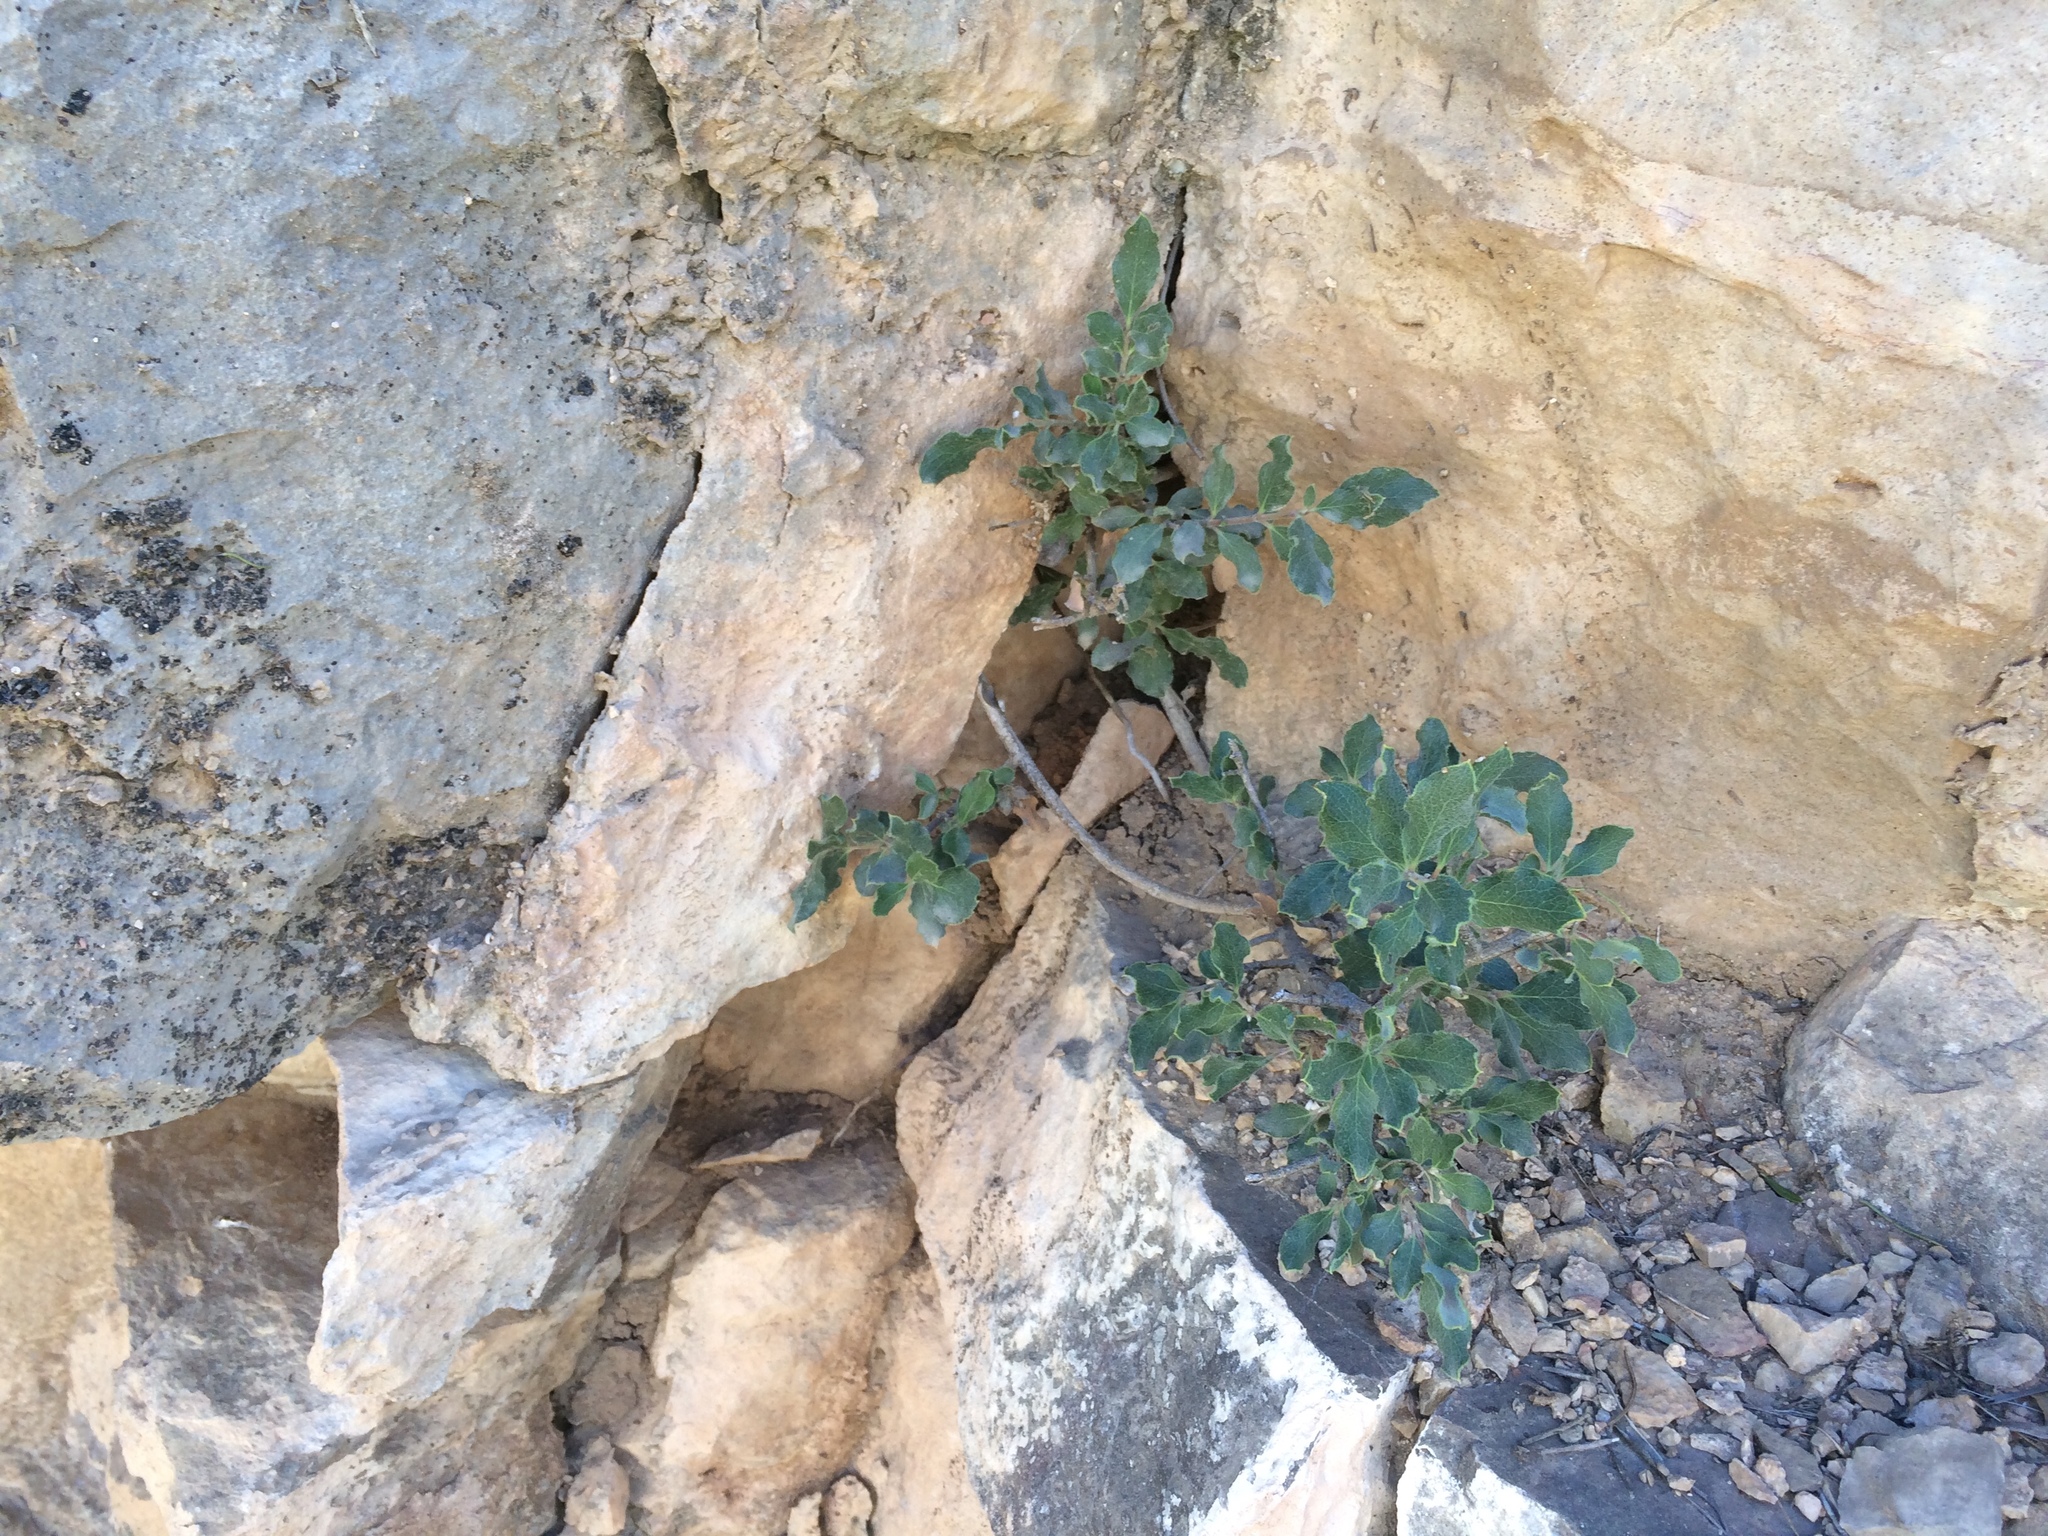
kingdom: Plantae
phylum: Tracheophyta
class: Magnoliopsida
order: Garryales
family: Garryaceae
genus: Garrya
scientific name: Garrya goldmanii
